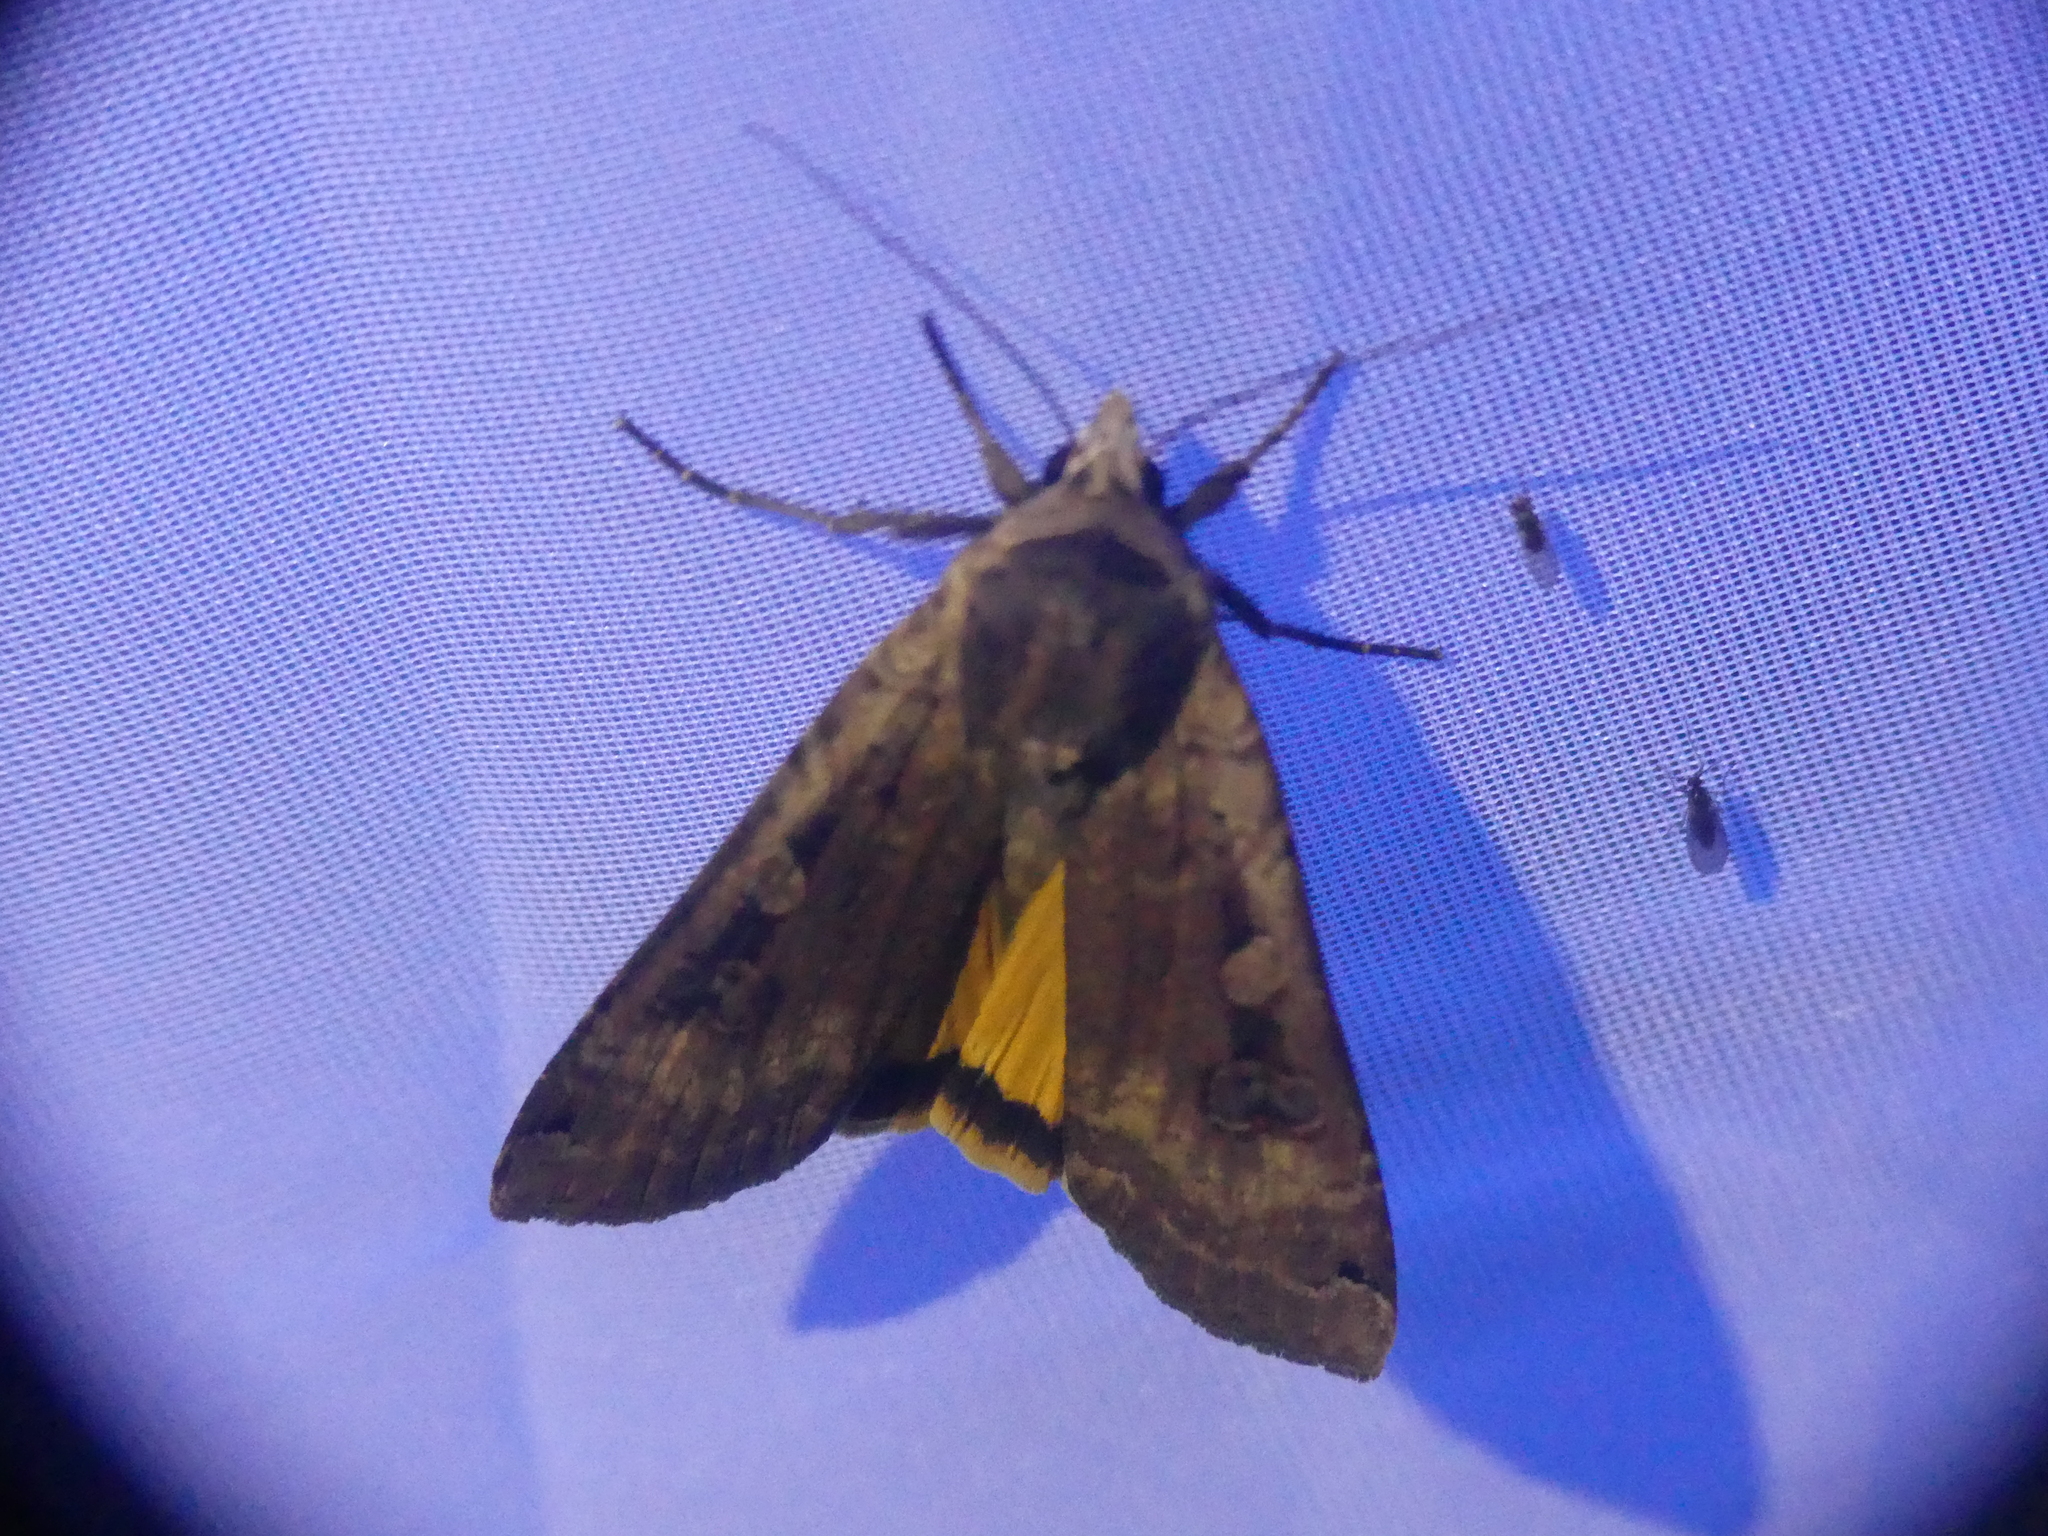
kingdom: Animalia
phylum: Arthropoda
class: Insecta
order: Lepidoptera
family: Noctuidae
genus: Noctua
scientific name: Noctua pronuba
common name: Large yellow underwing
